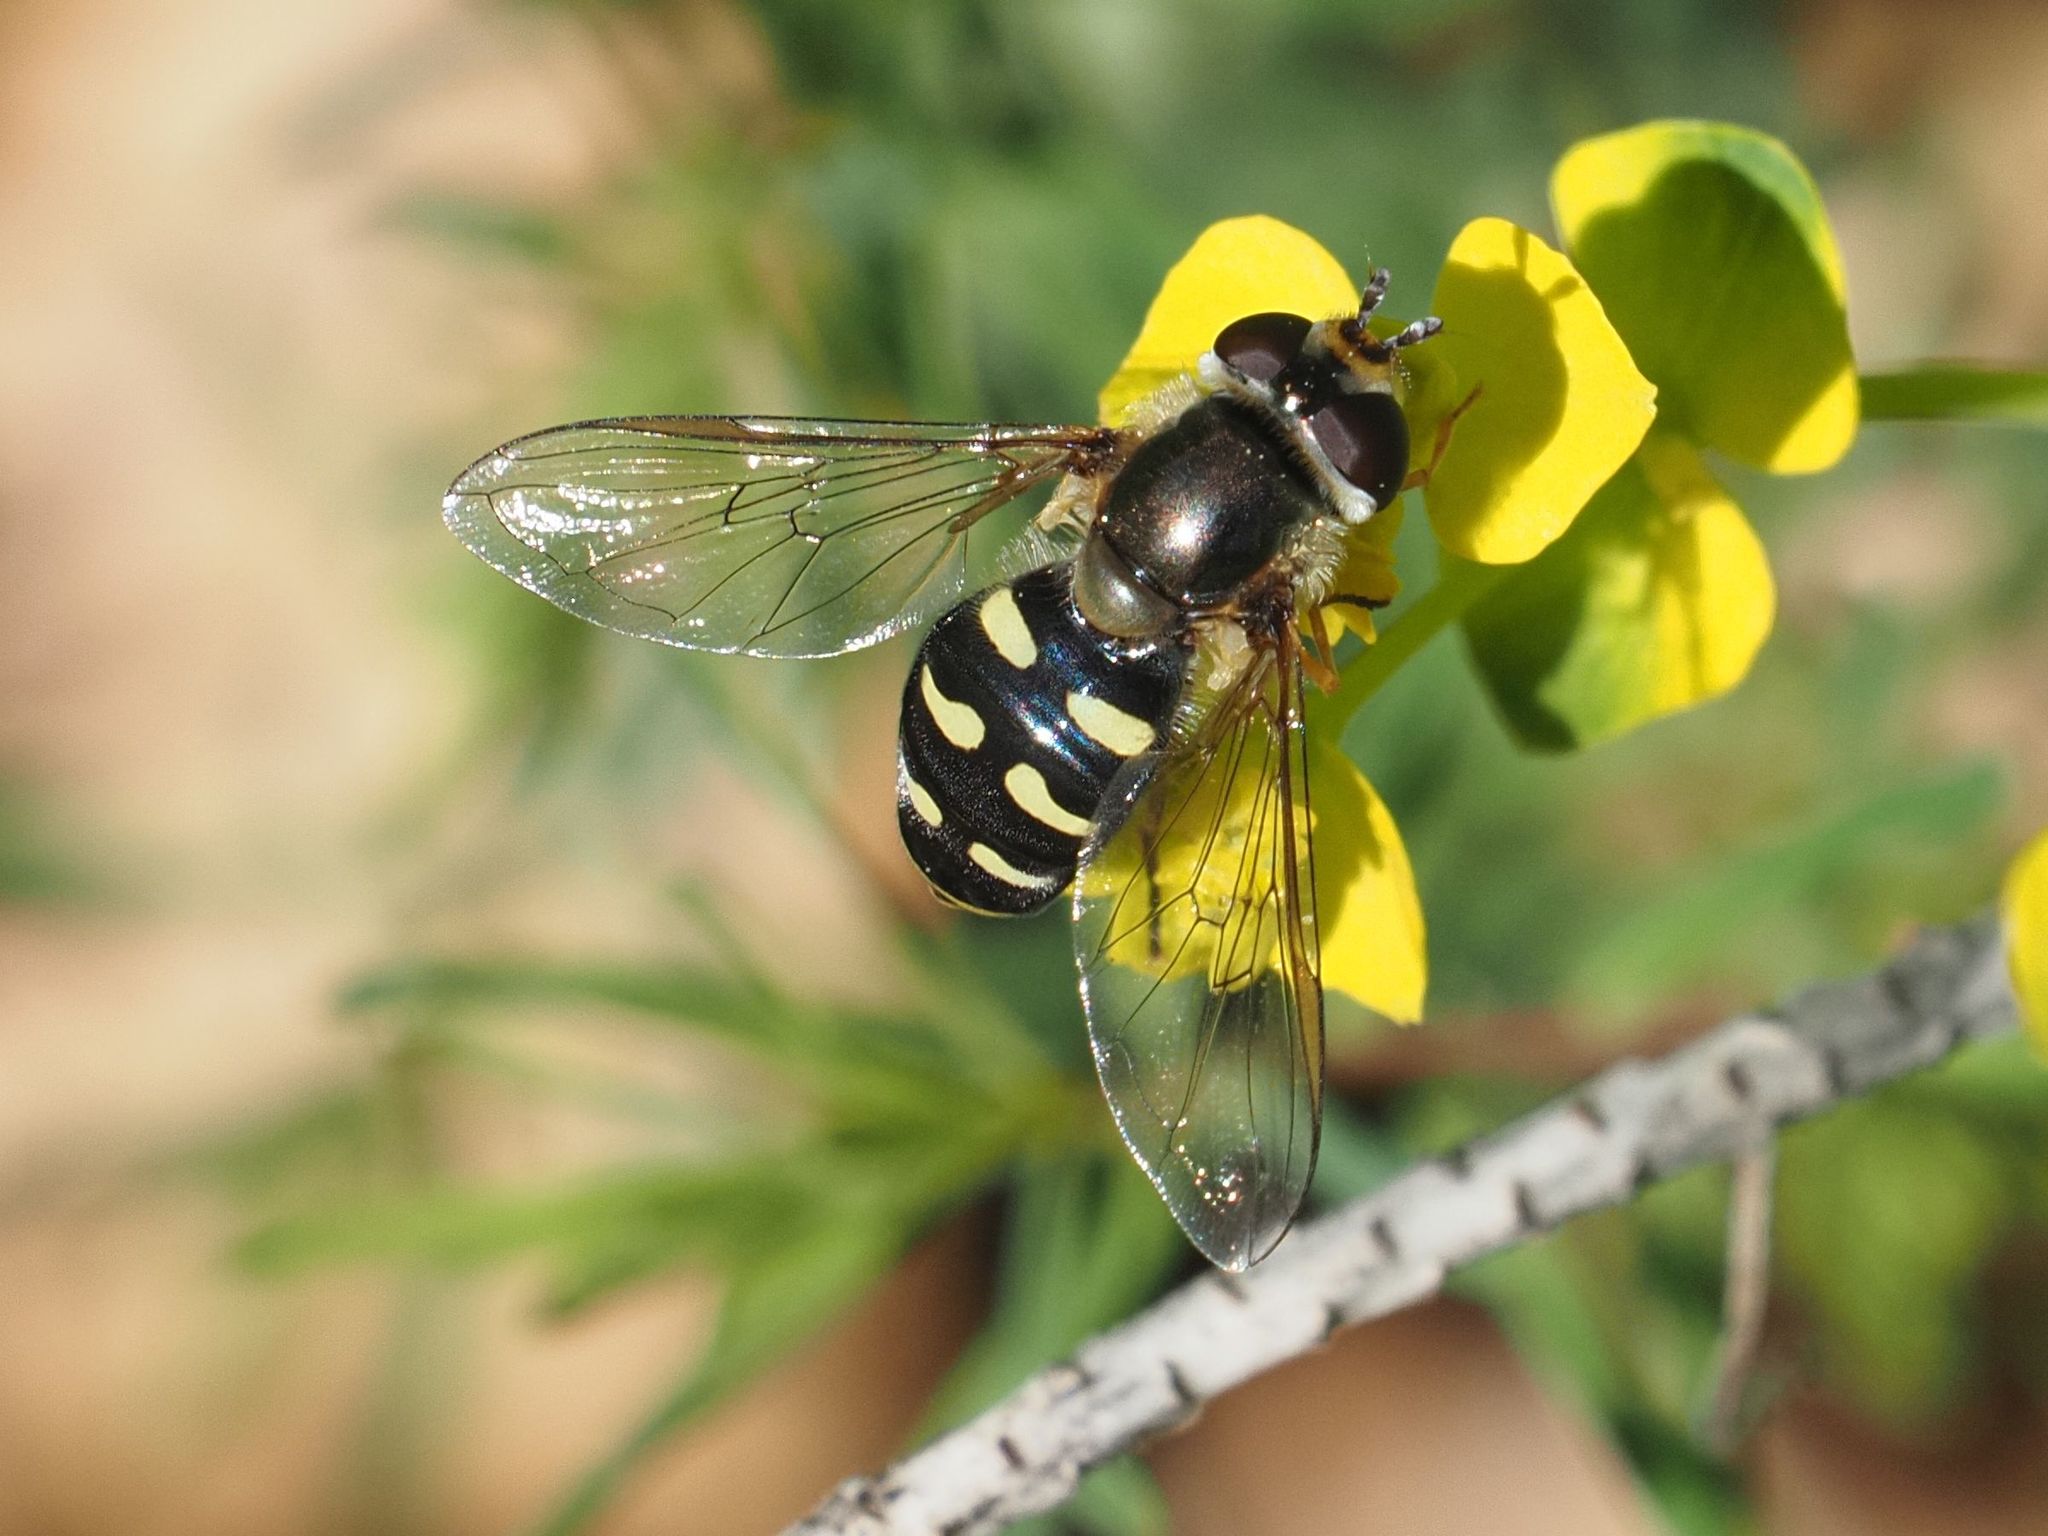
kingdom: Animalia
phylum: Arthropoda
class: Insecta
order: Diptera
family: Syrphidae
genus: Eupeodes
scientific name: Eupeodes luniger
